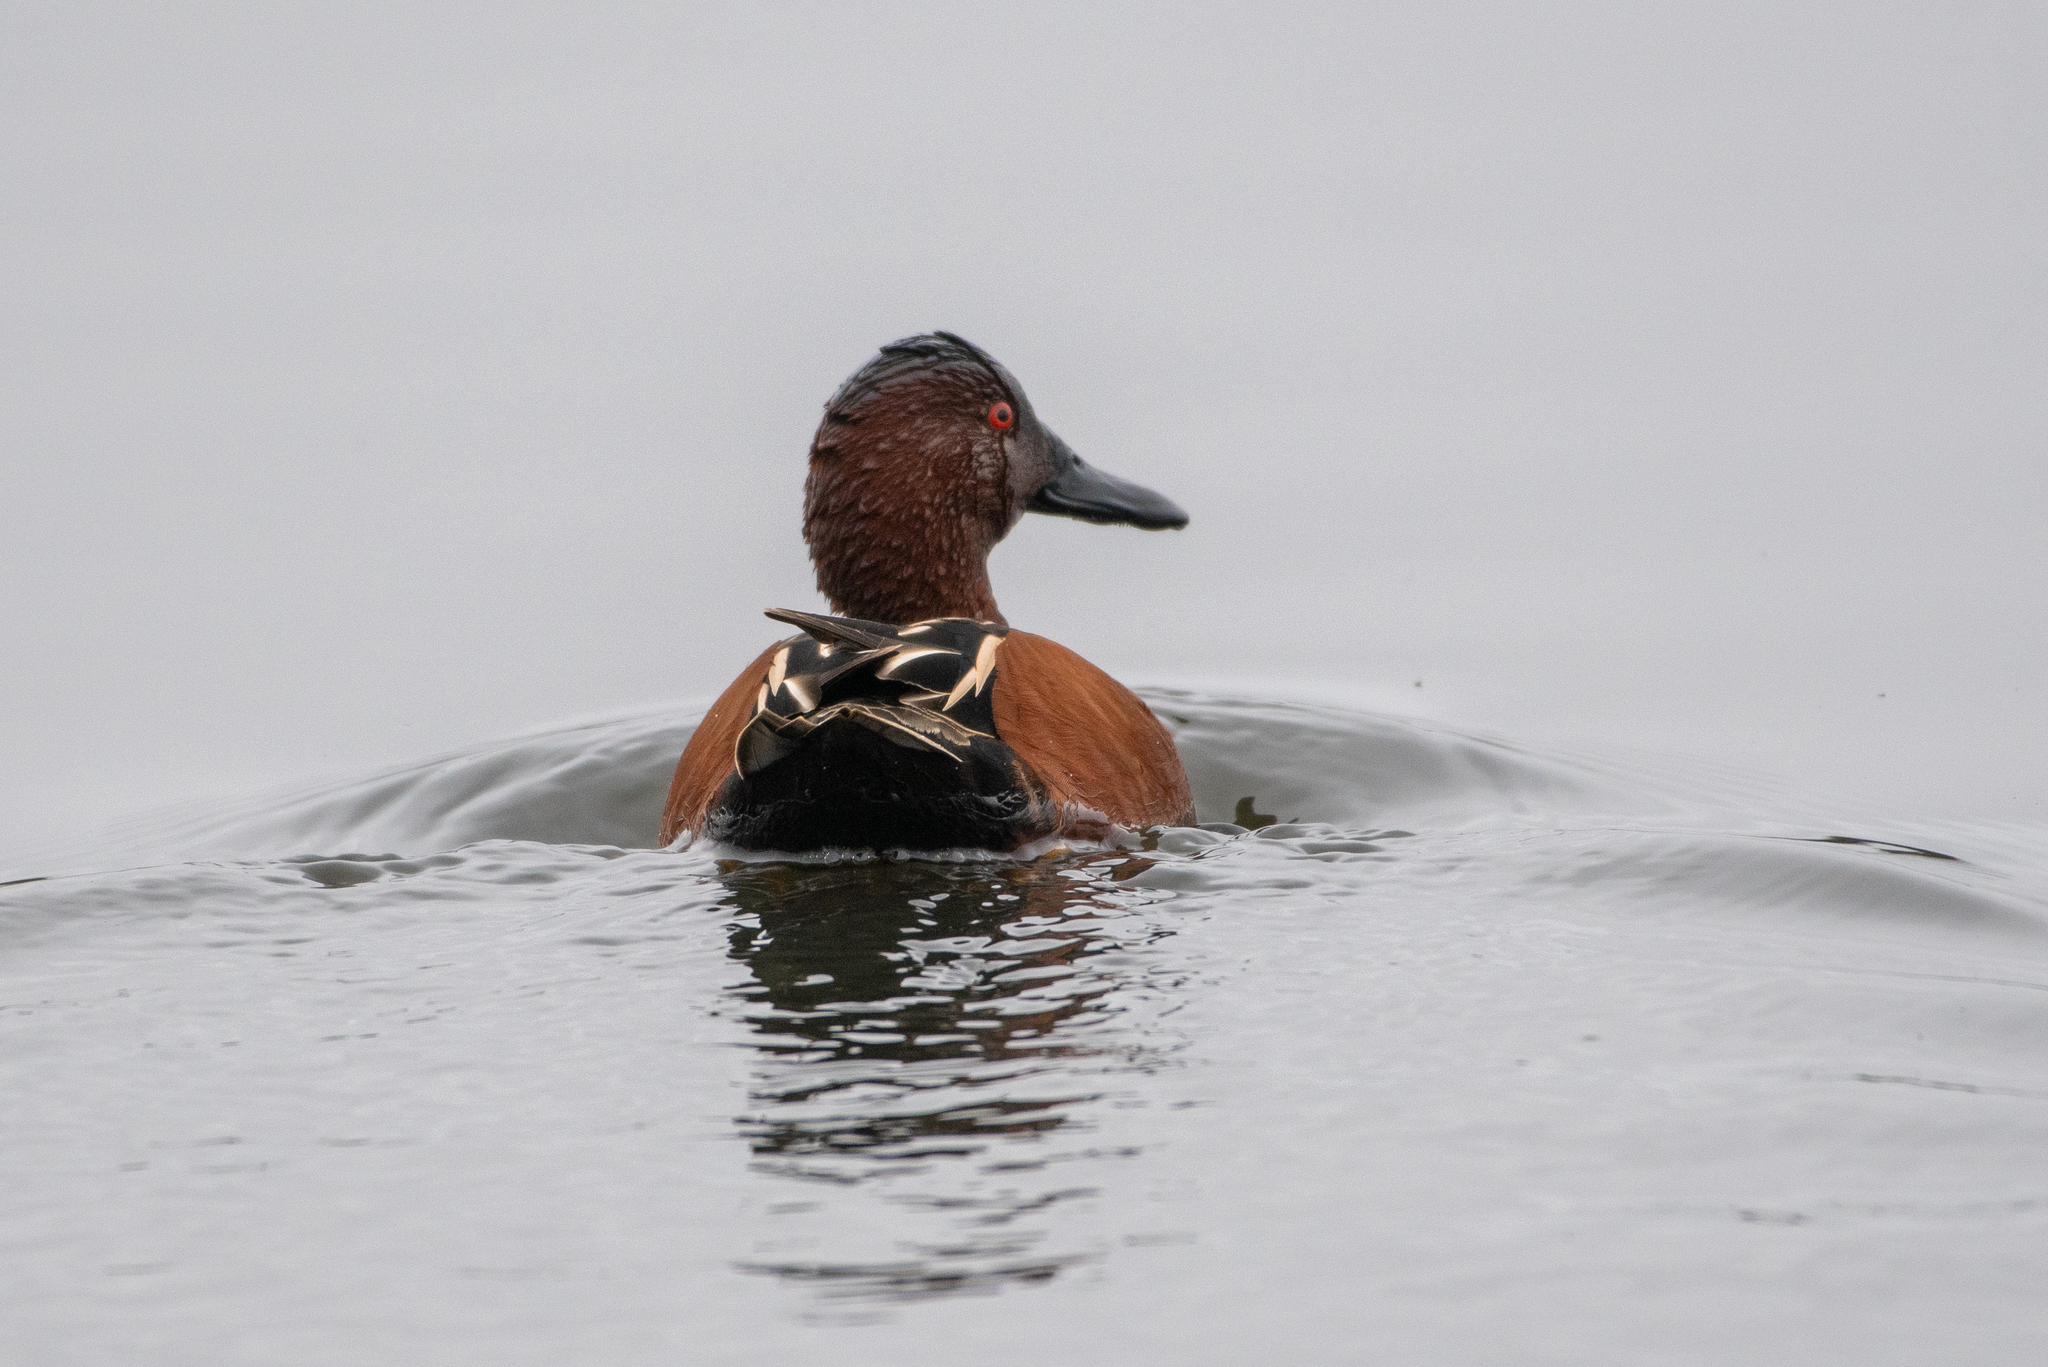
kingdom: Animalia
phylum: Chordata
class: Aves
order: Anseriformes
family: Anatidae
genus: Spatula
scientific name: Spatula cyanoptera
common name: Cinnamon teal
